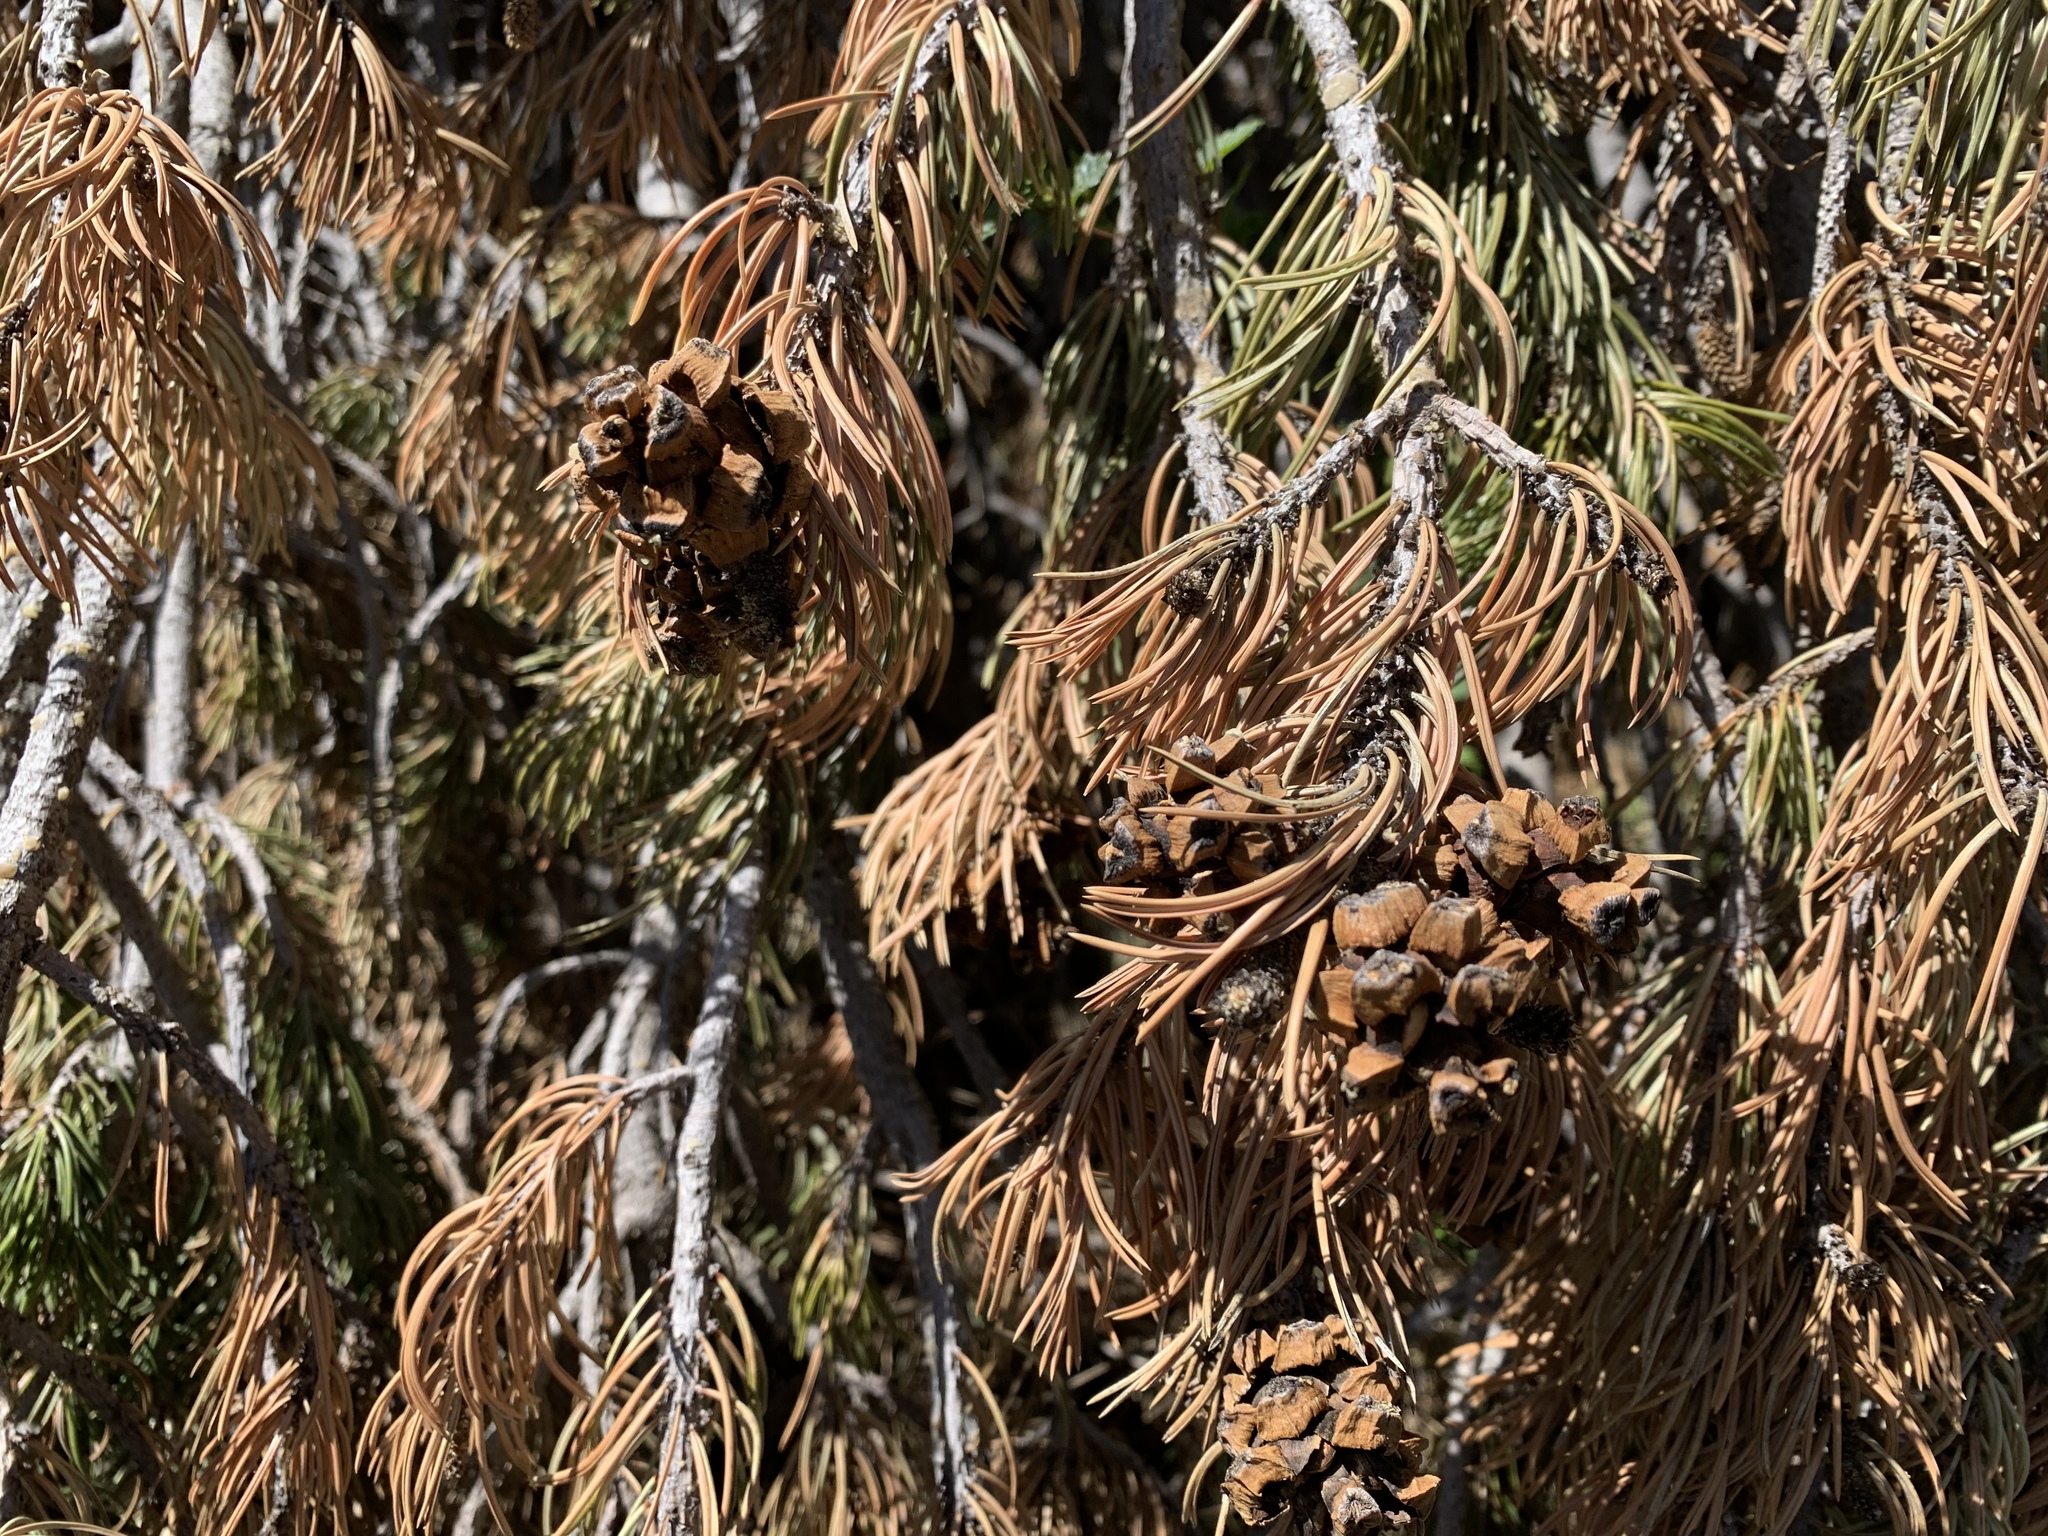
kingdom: Plantae
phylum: Tracheophyta
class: Pinopsida
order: Pinales
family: Pinaceae
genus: Pinus
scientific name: Pinus edulis
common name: Colorado pinyon
